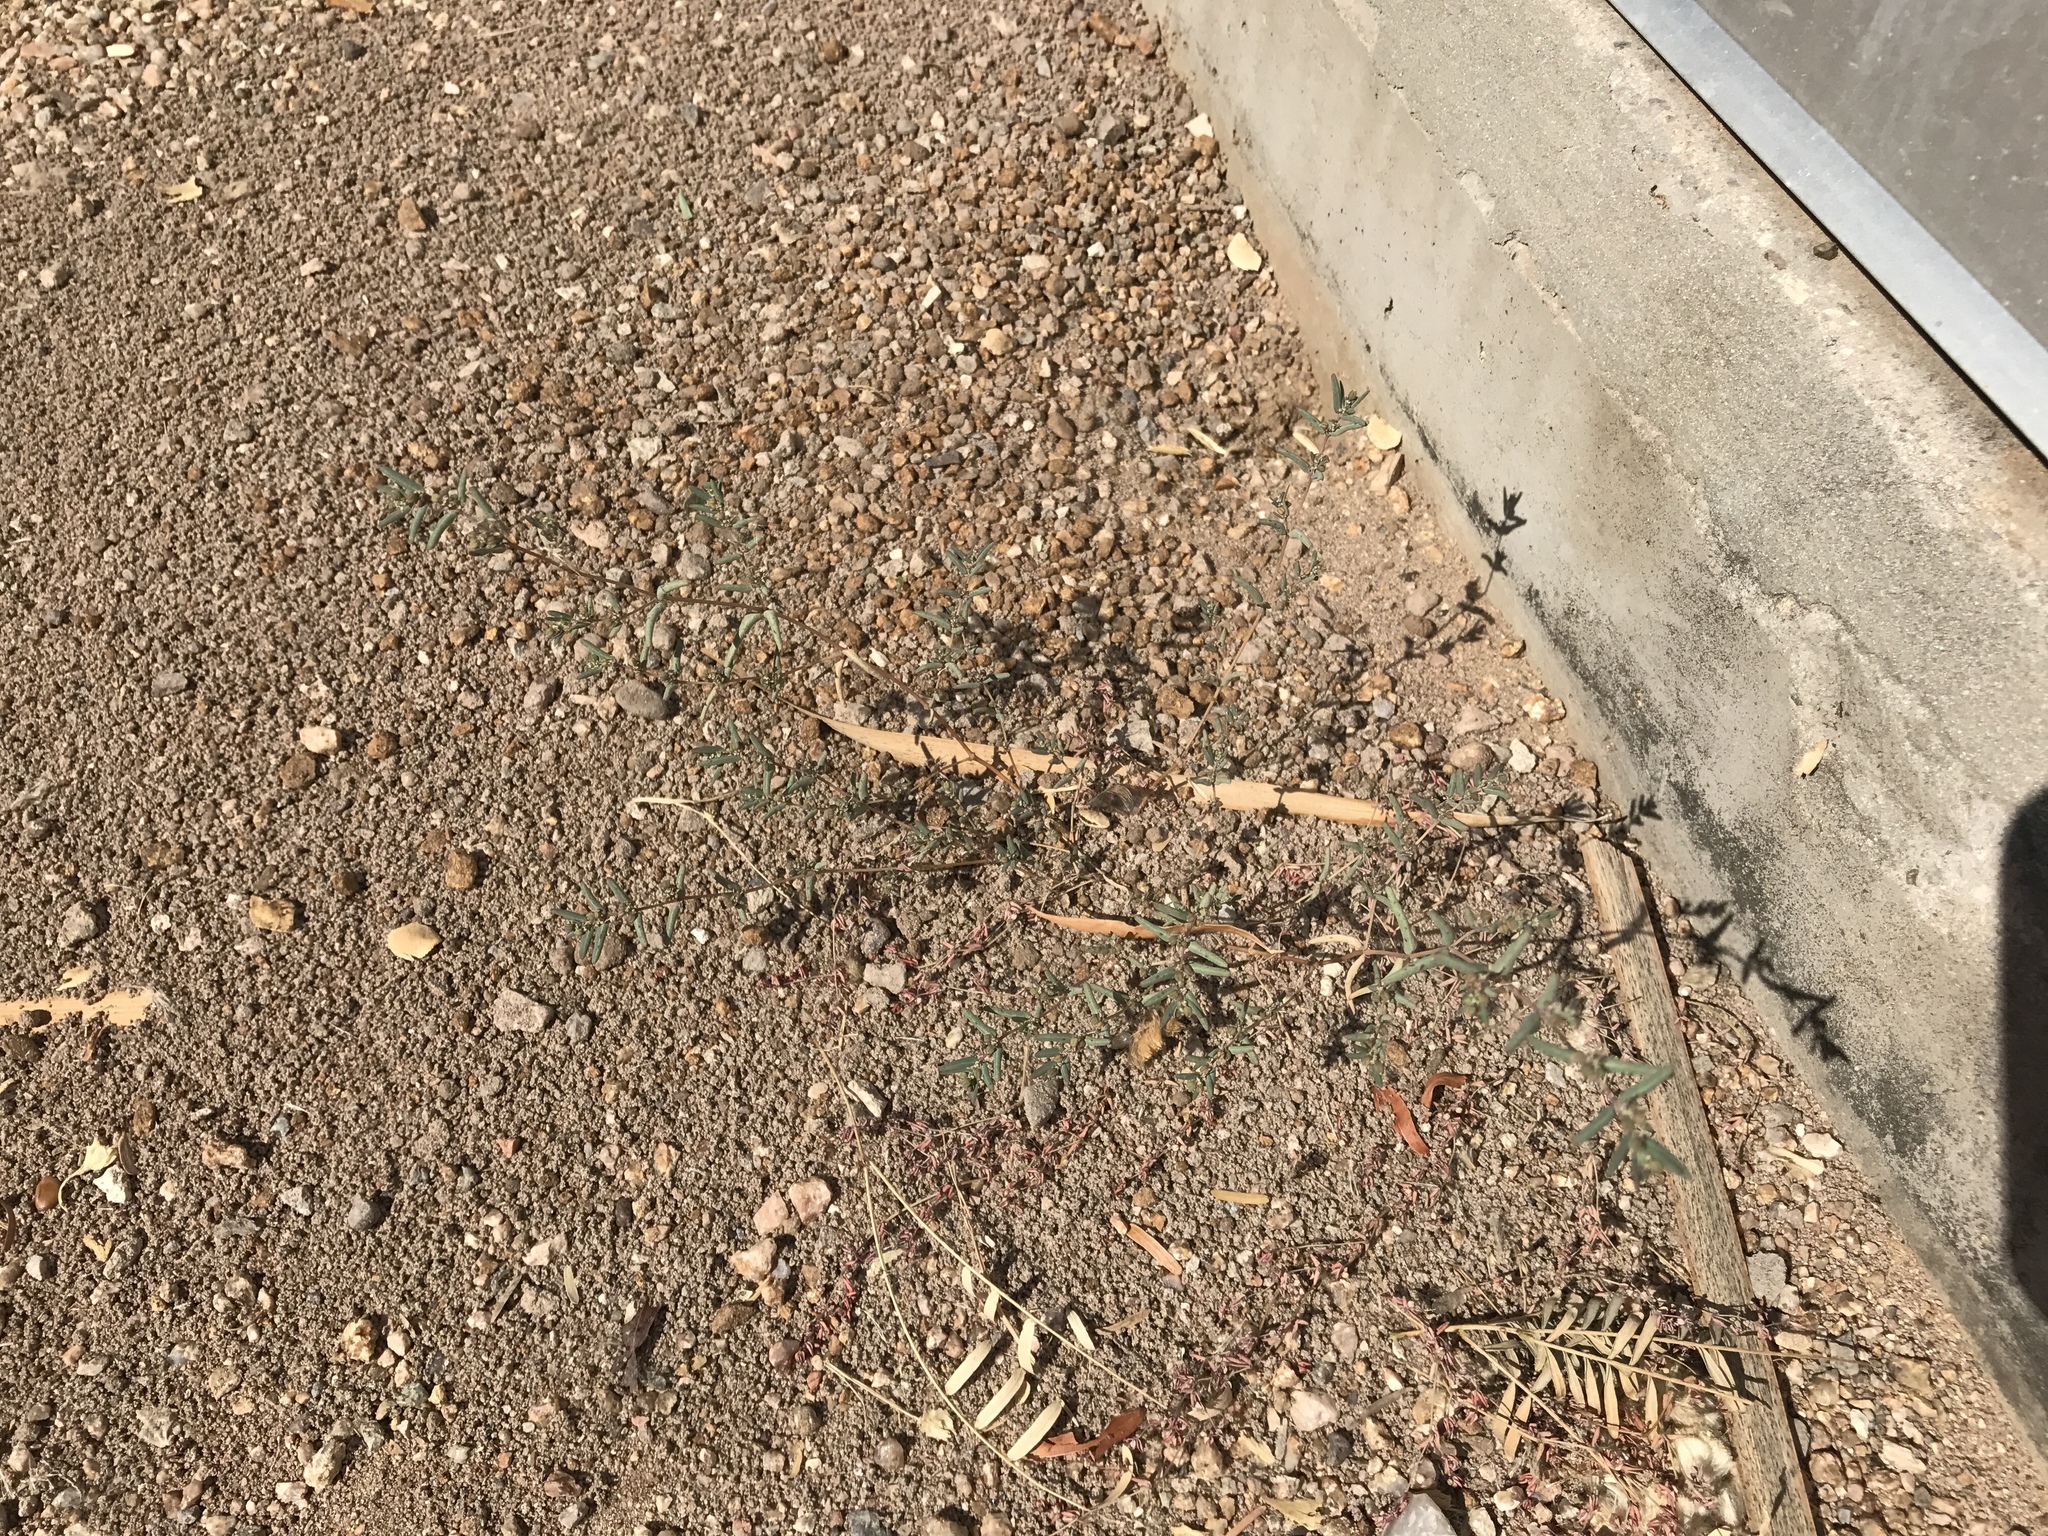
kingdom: Plantae
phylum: Tracheophyta
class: Magnoliopsida
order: Malpighiales
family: Euphorbiaceae
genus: Euphorbia
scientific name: Euphorbia abramsiana
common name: Abram's spurge
